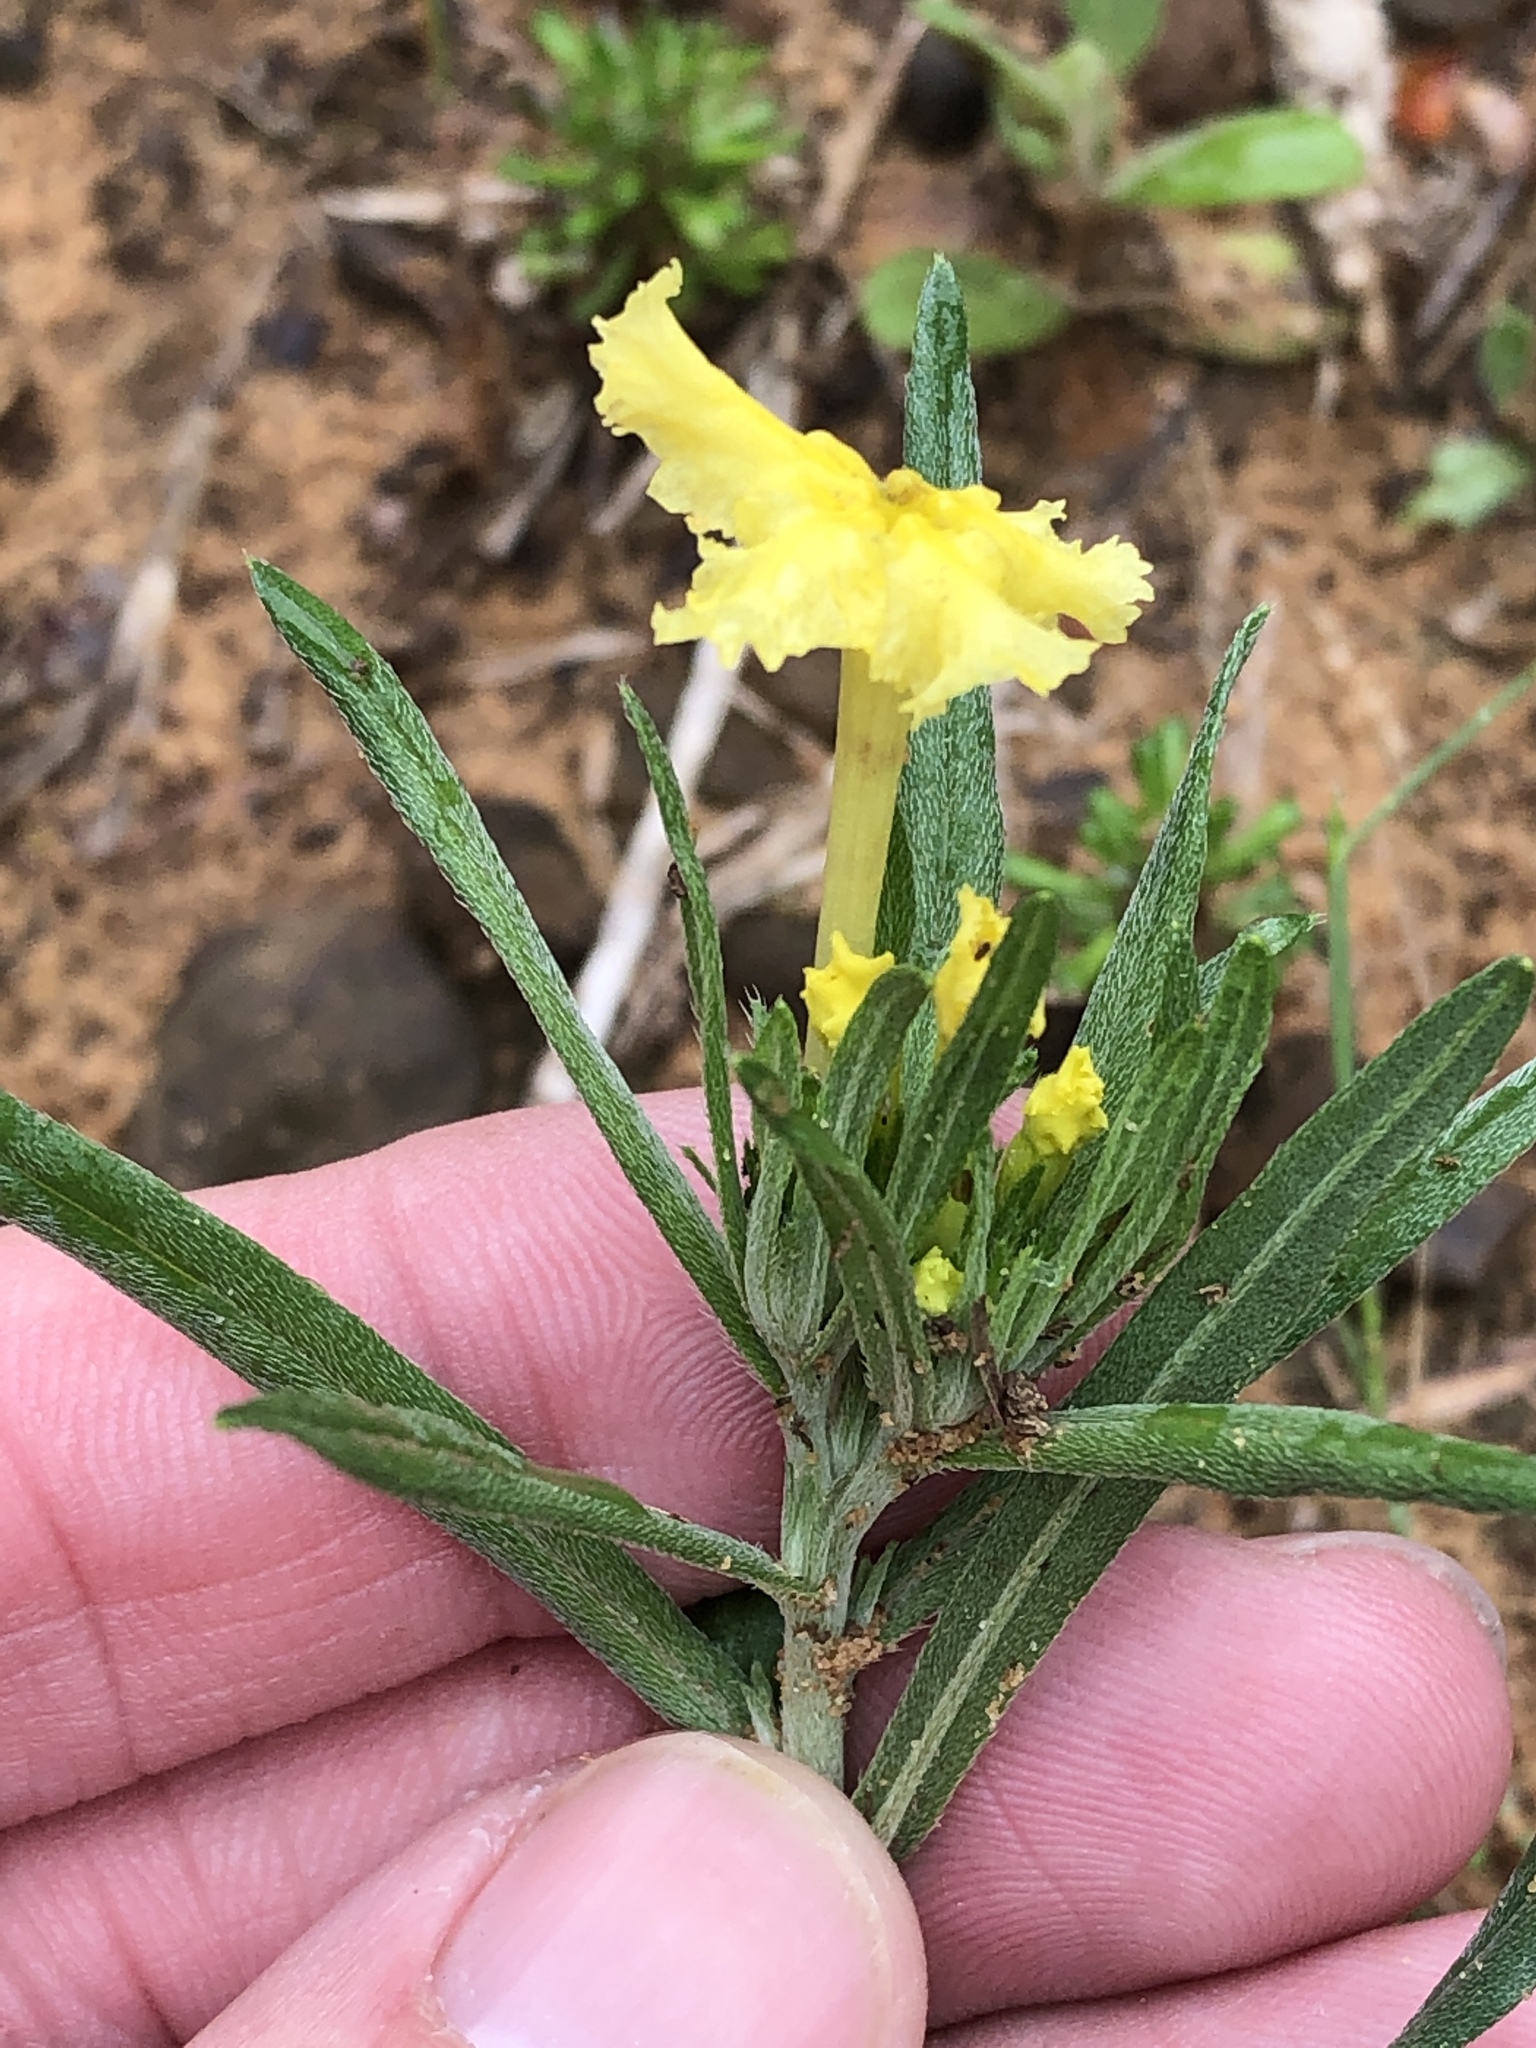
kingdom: Plantae
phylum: Tracheophyta
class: Magnoliopsida
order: Boraginales
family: Boraginaceae
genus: Lithospermum
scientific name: Lithospermum incisum
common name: Fringed gromwell
